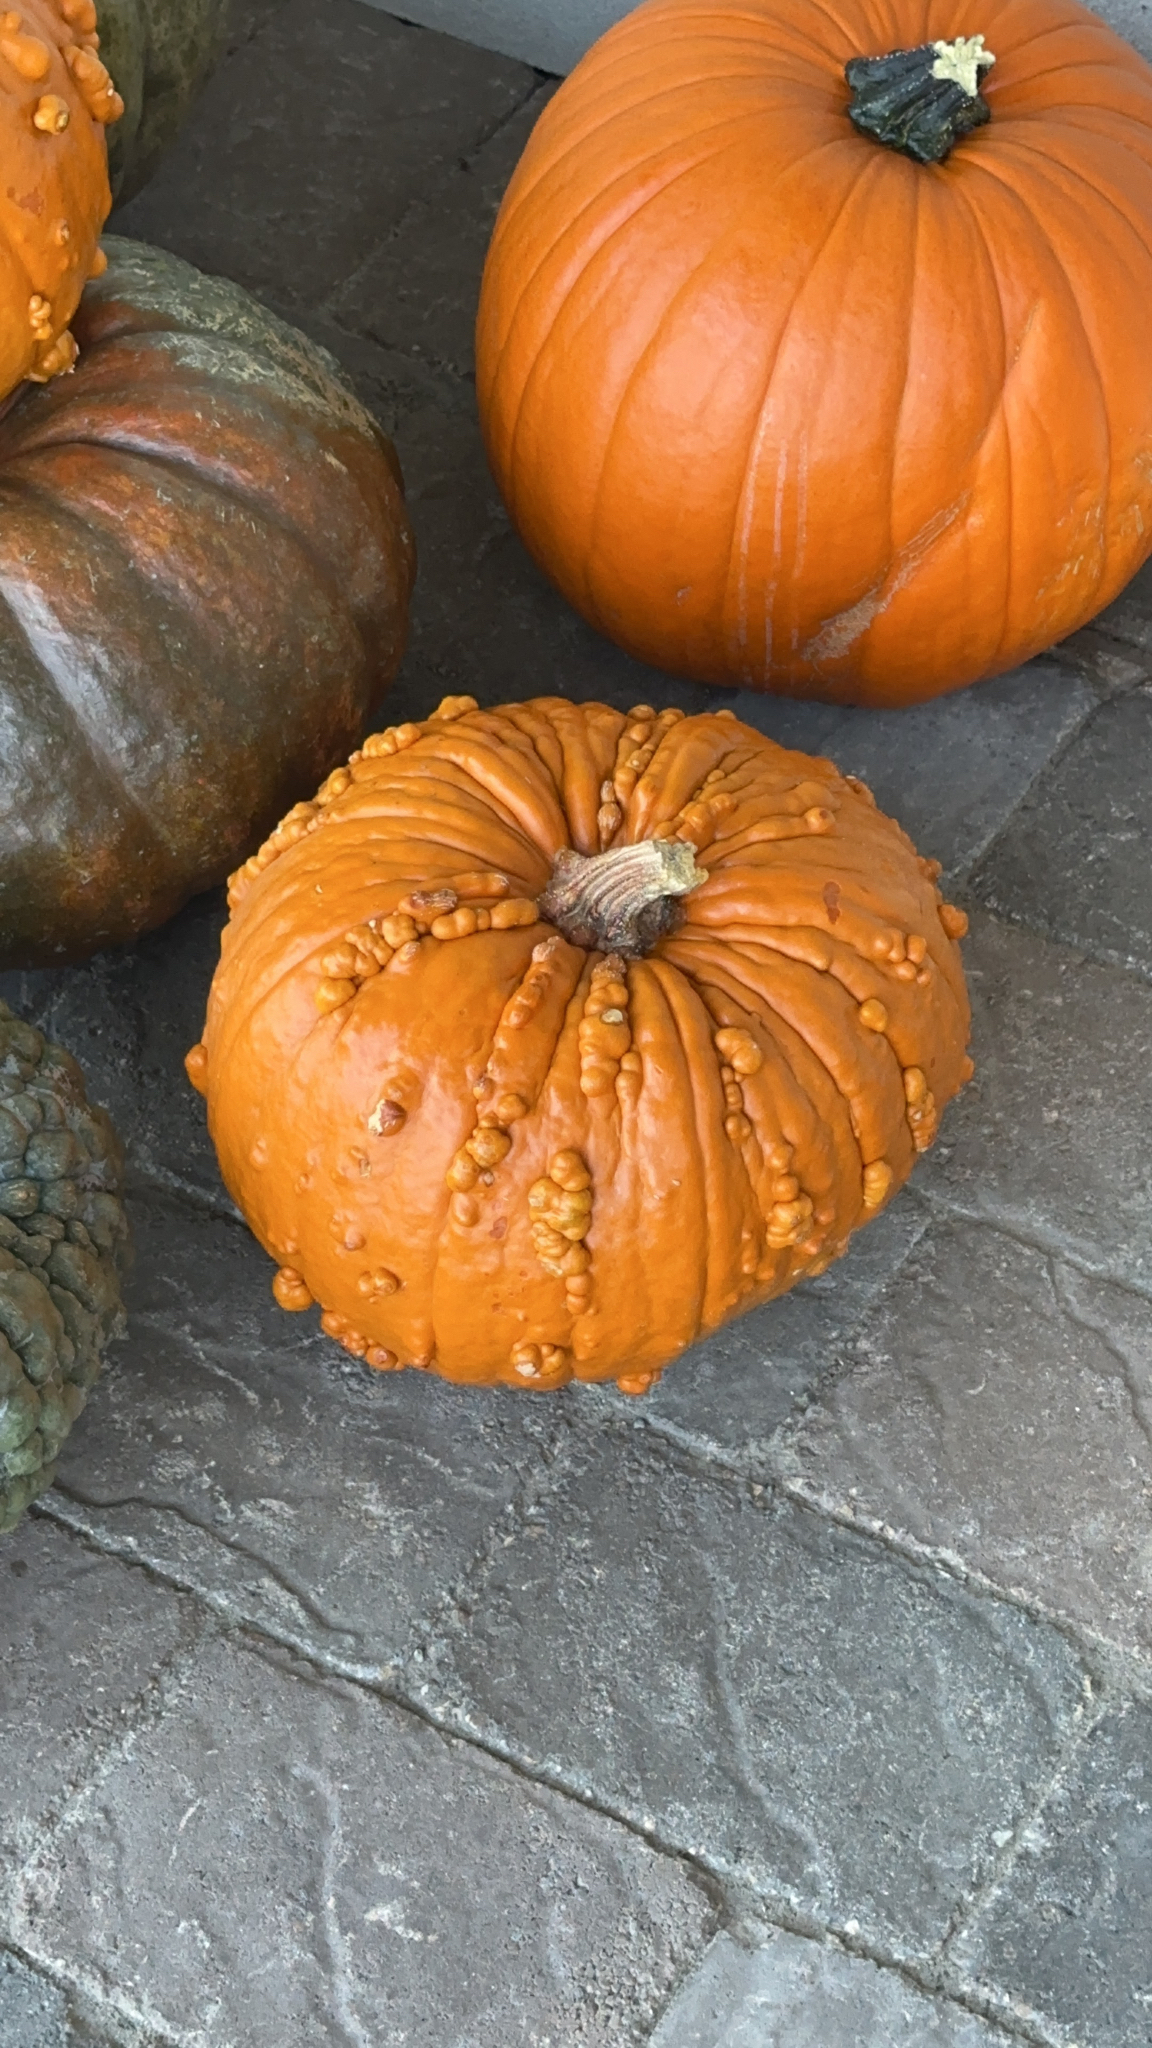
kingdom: Plantae
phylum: Tracheophyta
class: Magnoliopsida
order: Cucurbitales
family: Cucurbitaceae
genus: Cucurbita
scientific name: Cucurbita pepo
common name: Marrow
